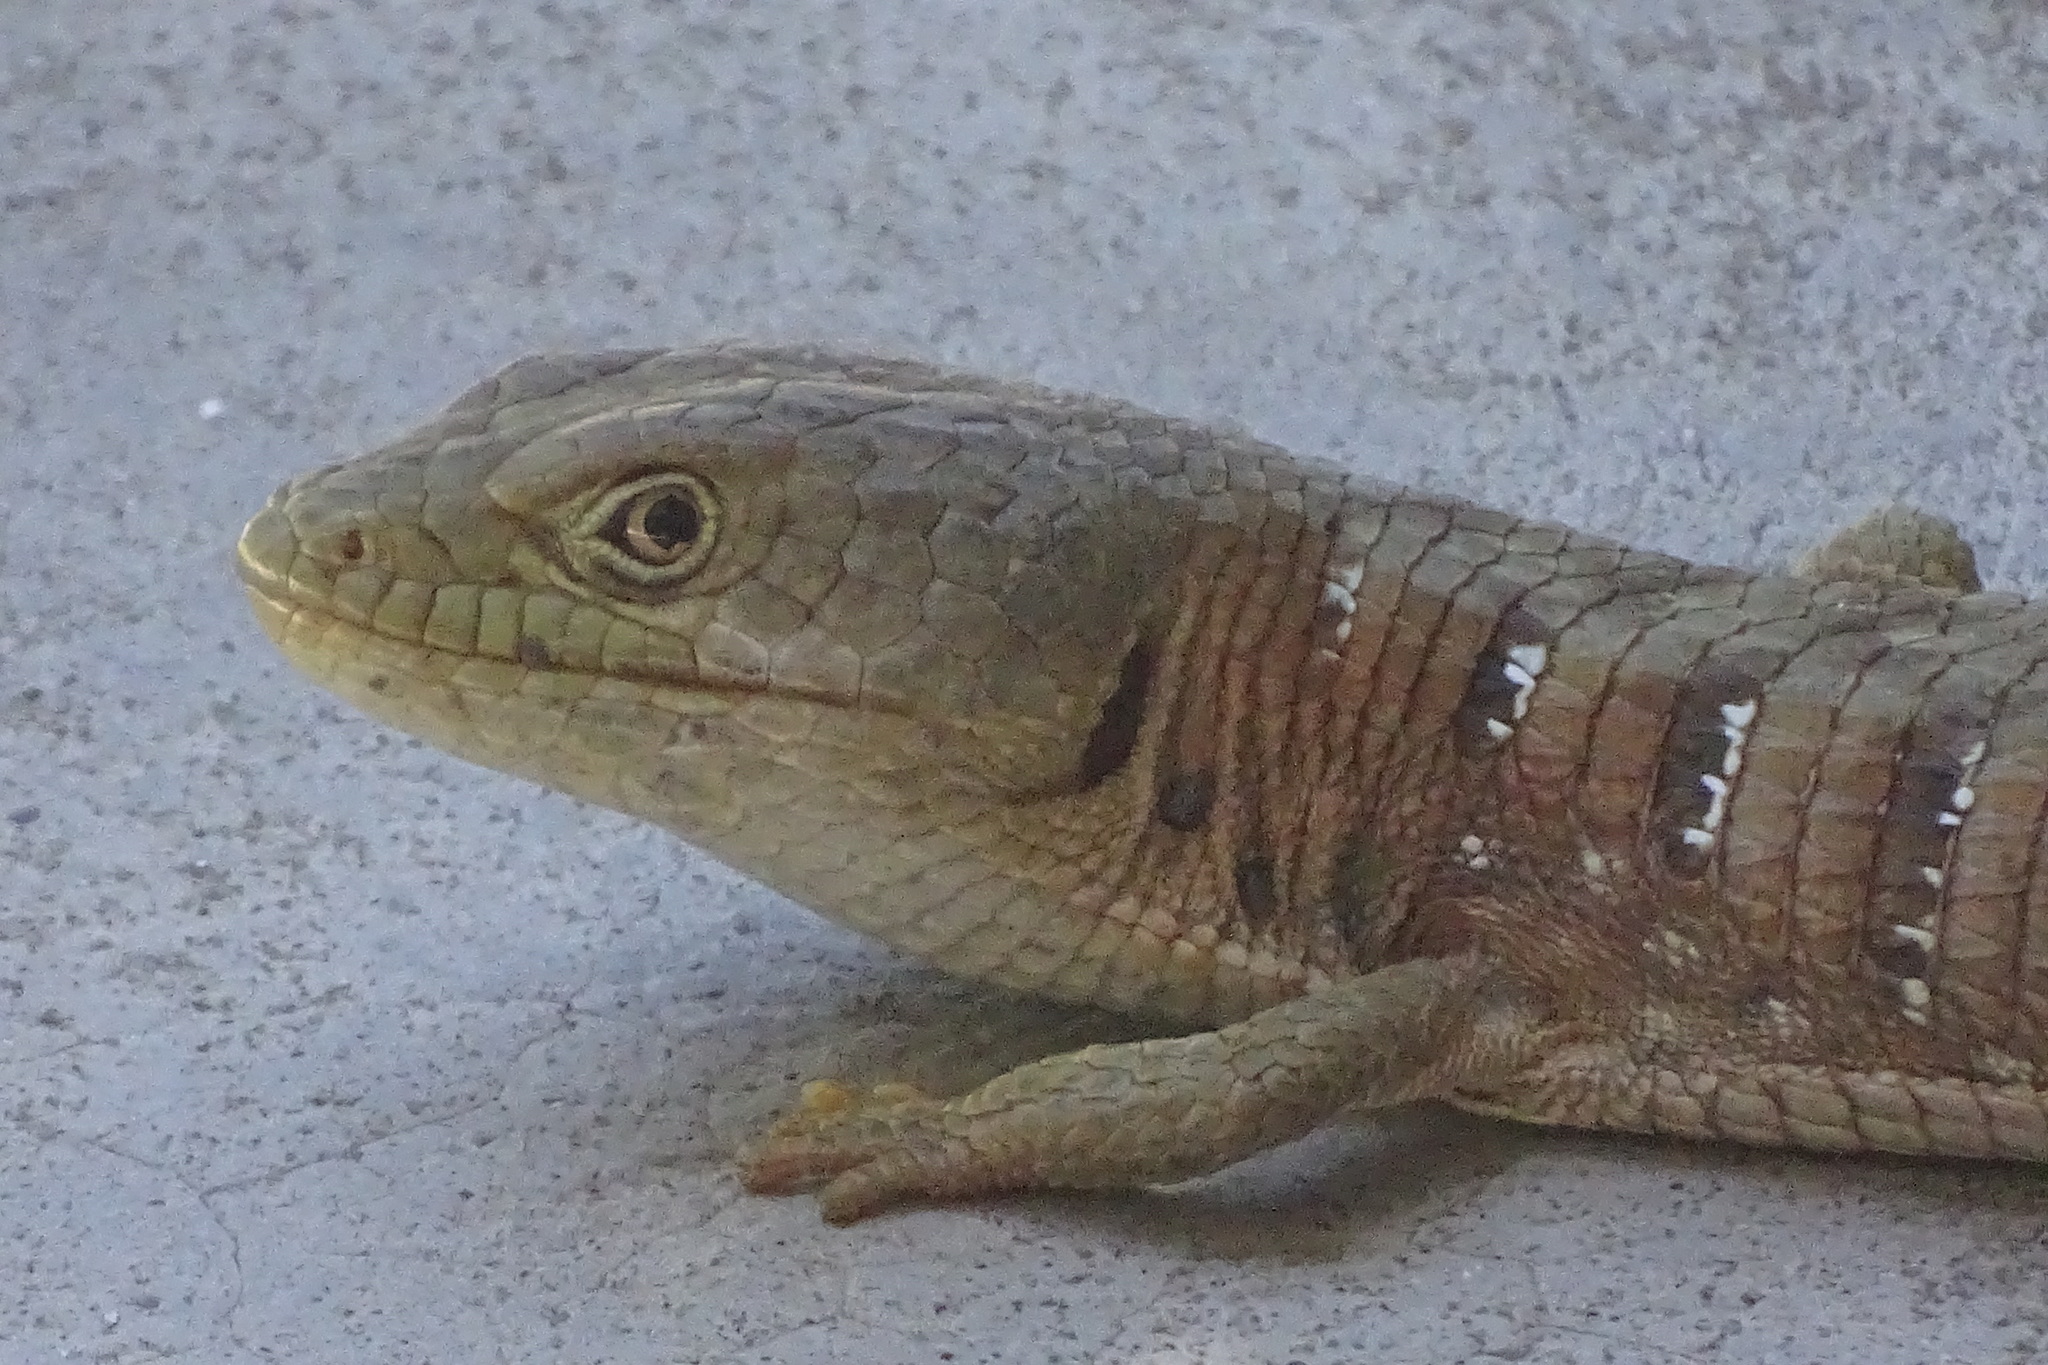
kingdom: Animalia
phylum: Chordata
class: Squamata
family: Anguidae
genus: Elgaria
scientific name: Elgaria multicarinata
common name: Southern alligator lizard
